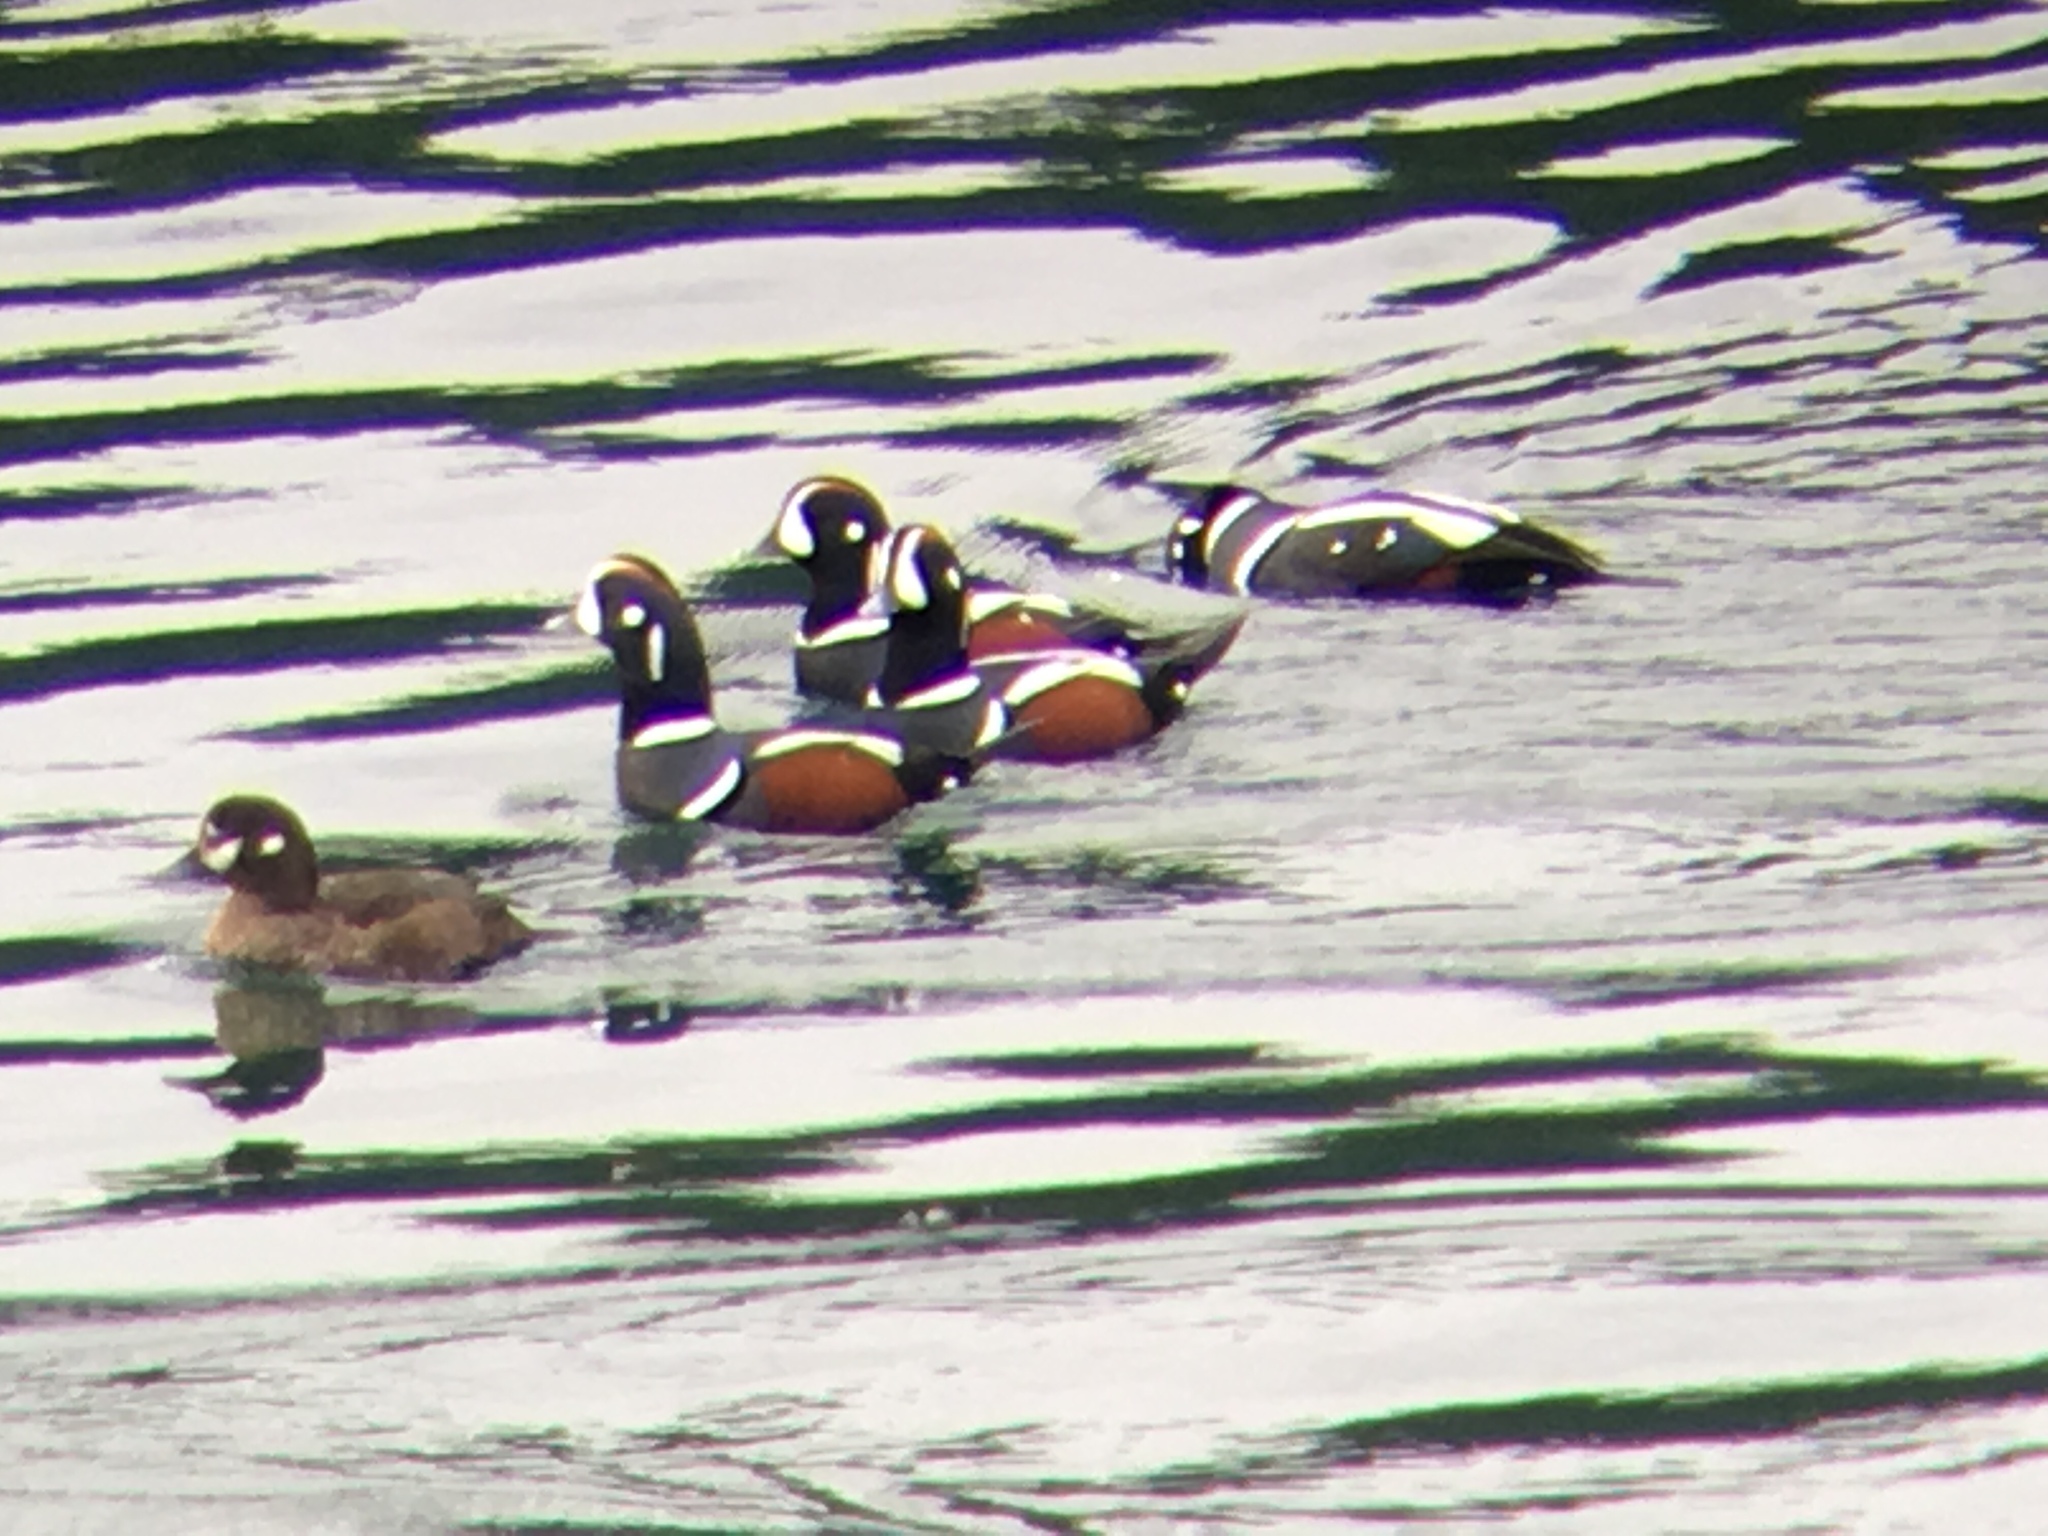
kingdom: Animalia
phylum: Chordata
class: Aves
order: Anseriformes
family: Anatidae
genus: Histrionicus
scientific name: Histrionicus histrionicus
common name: Harlequin duck
